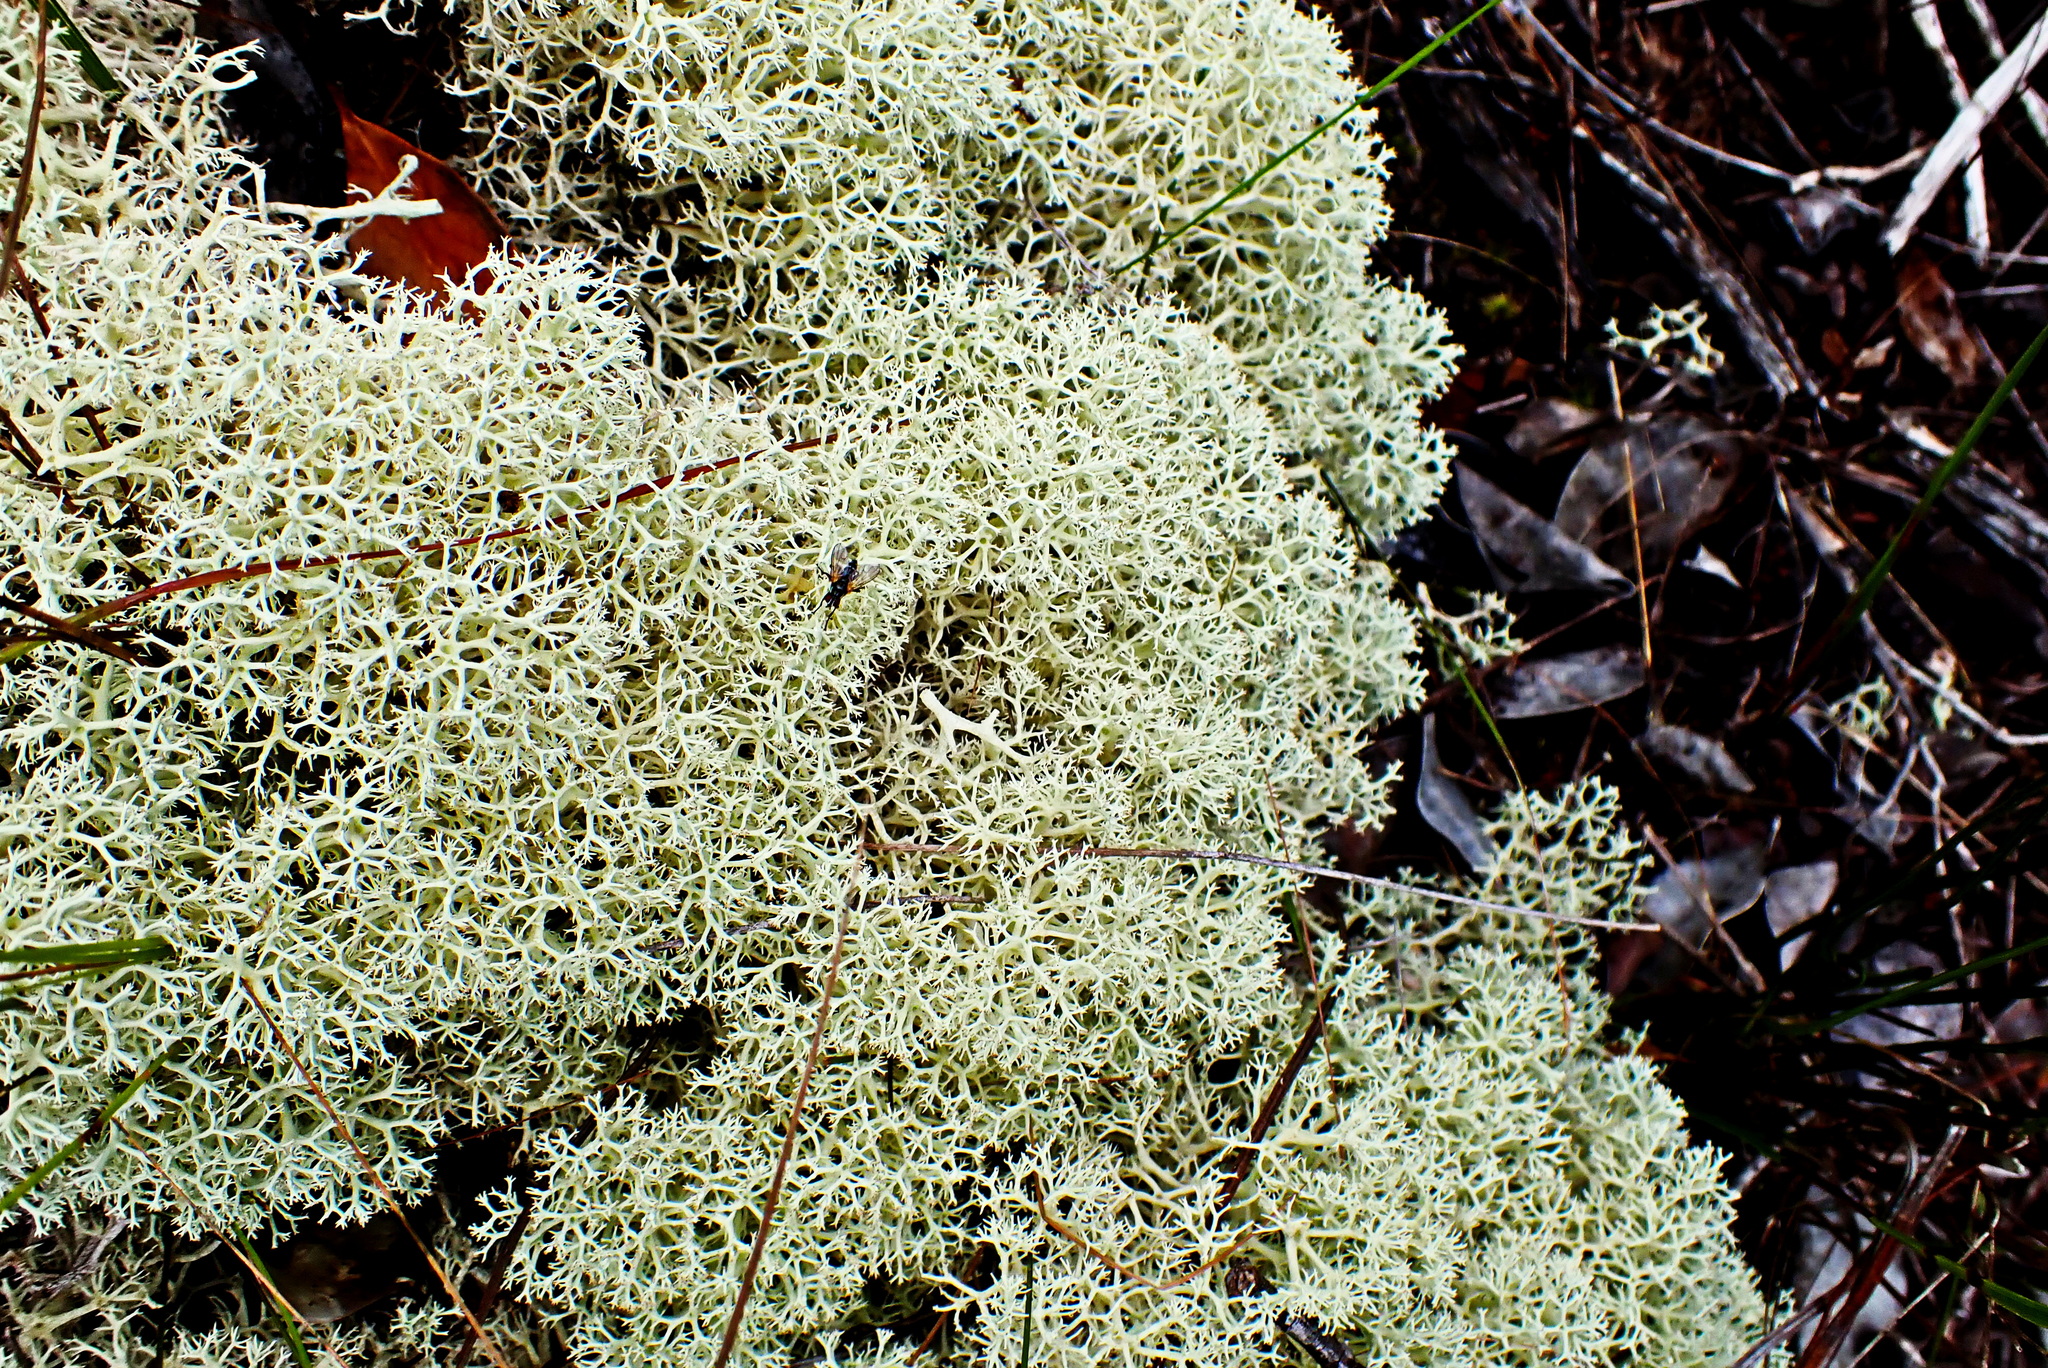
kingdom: Fungi
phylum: Ascomycota
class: Lecanoromycetes
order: Lecanorales
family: Cladoniaceae
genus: Cladonia
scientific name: Cladonia confusa
